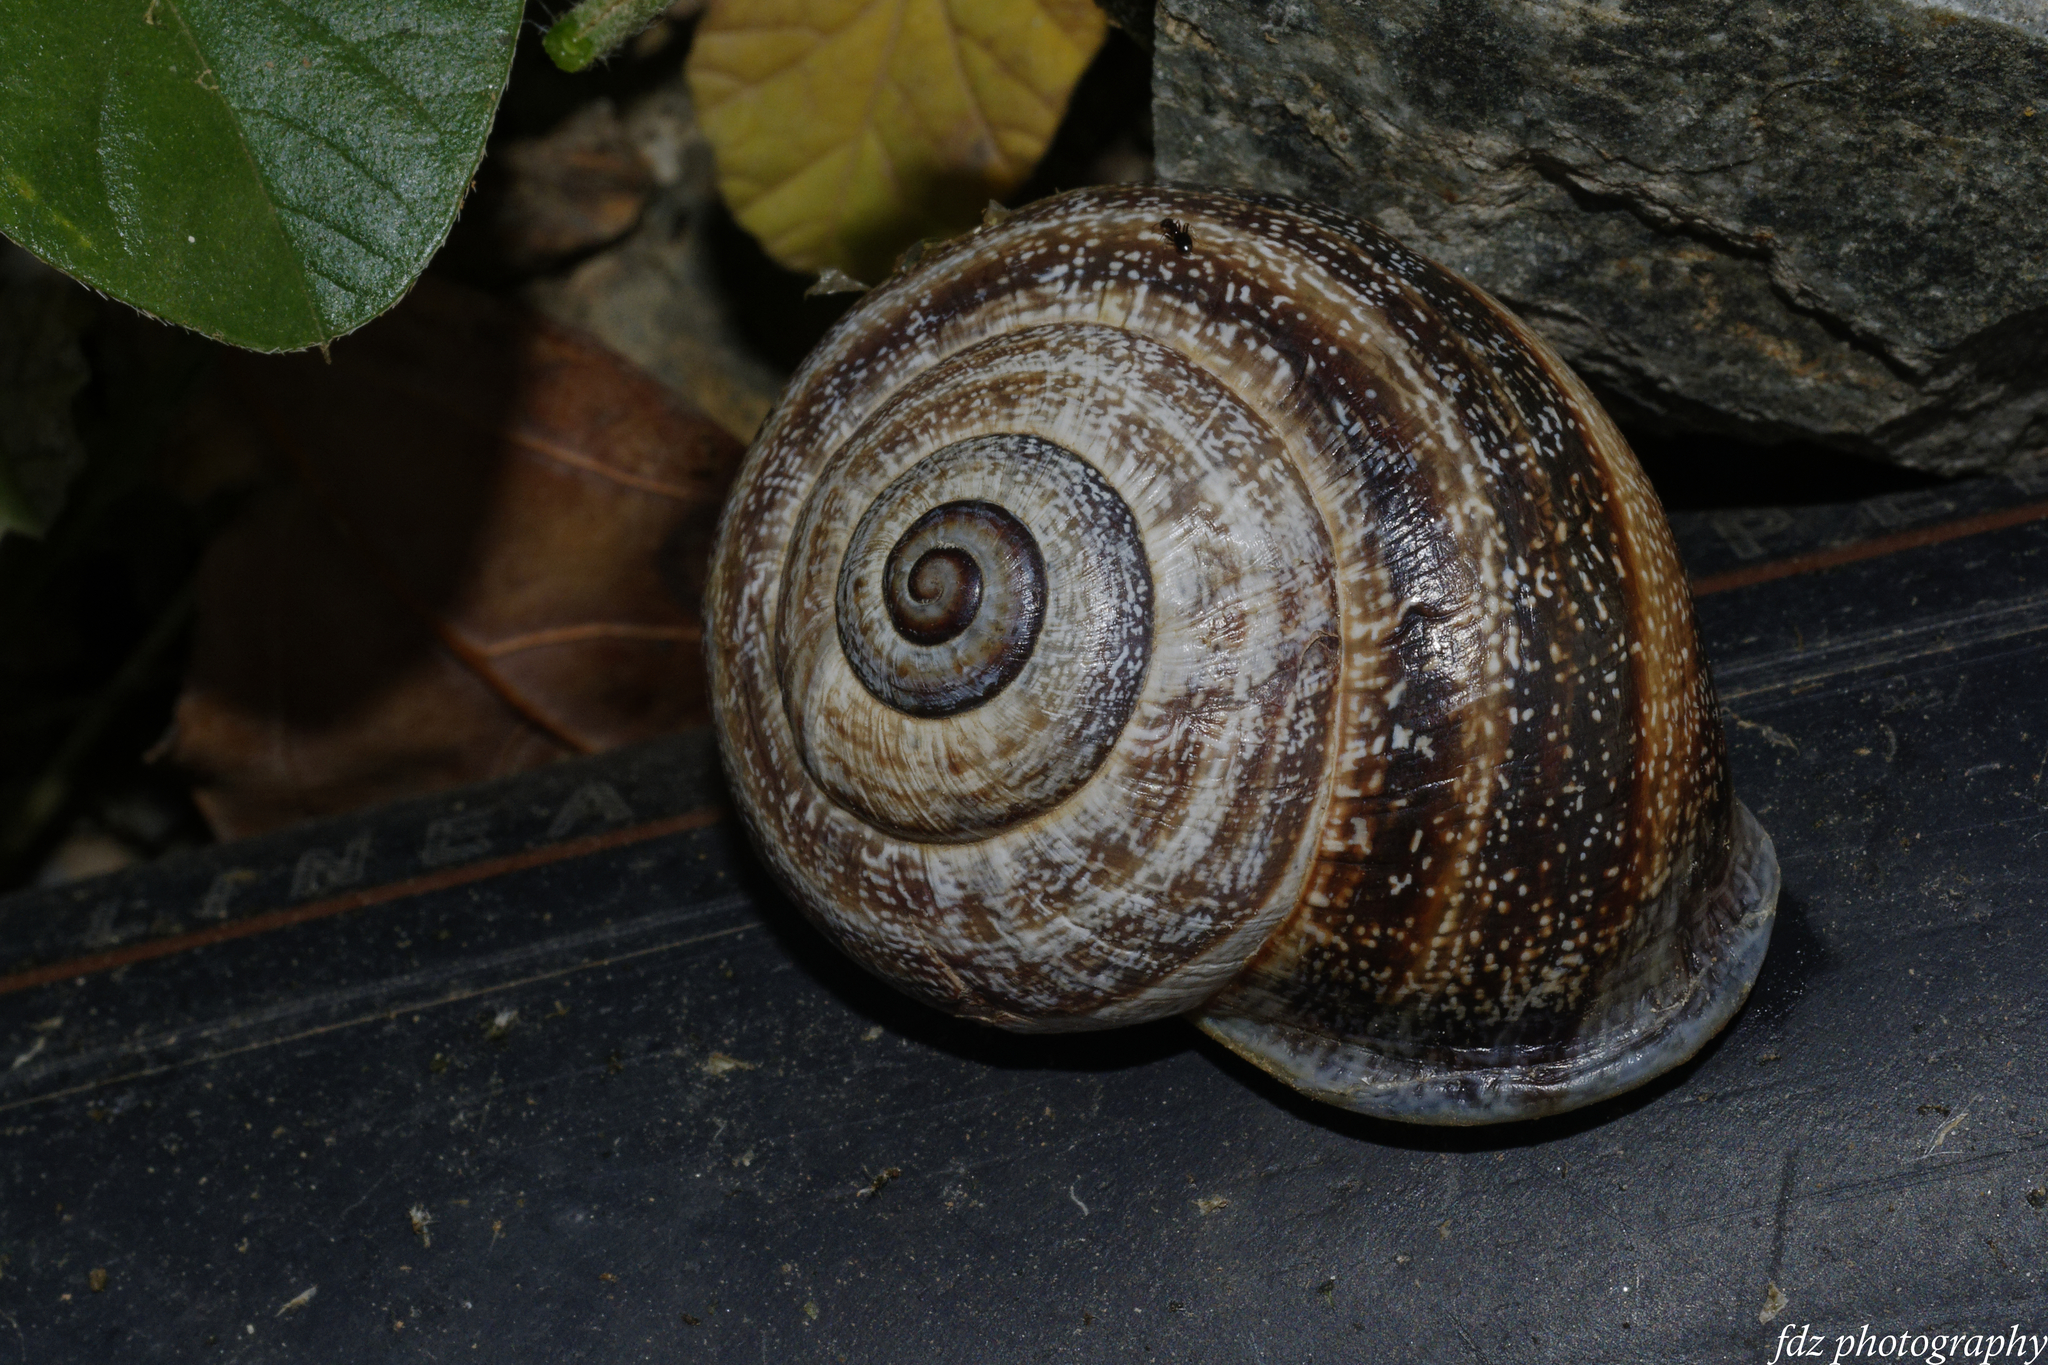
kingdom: Animalia
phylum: Mollusca
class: Gastropoda
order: Stylommatophora
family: Helicidae
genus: Otala
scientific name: Otala punctata
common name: Milk snail
